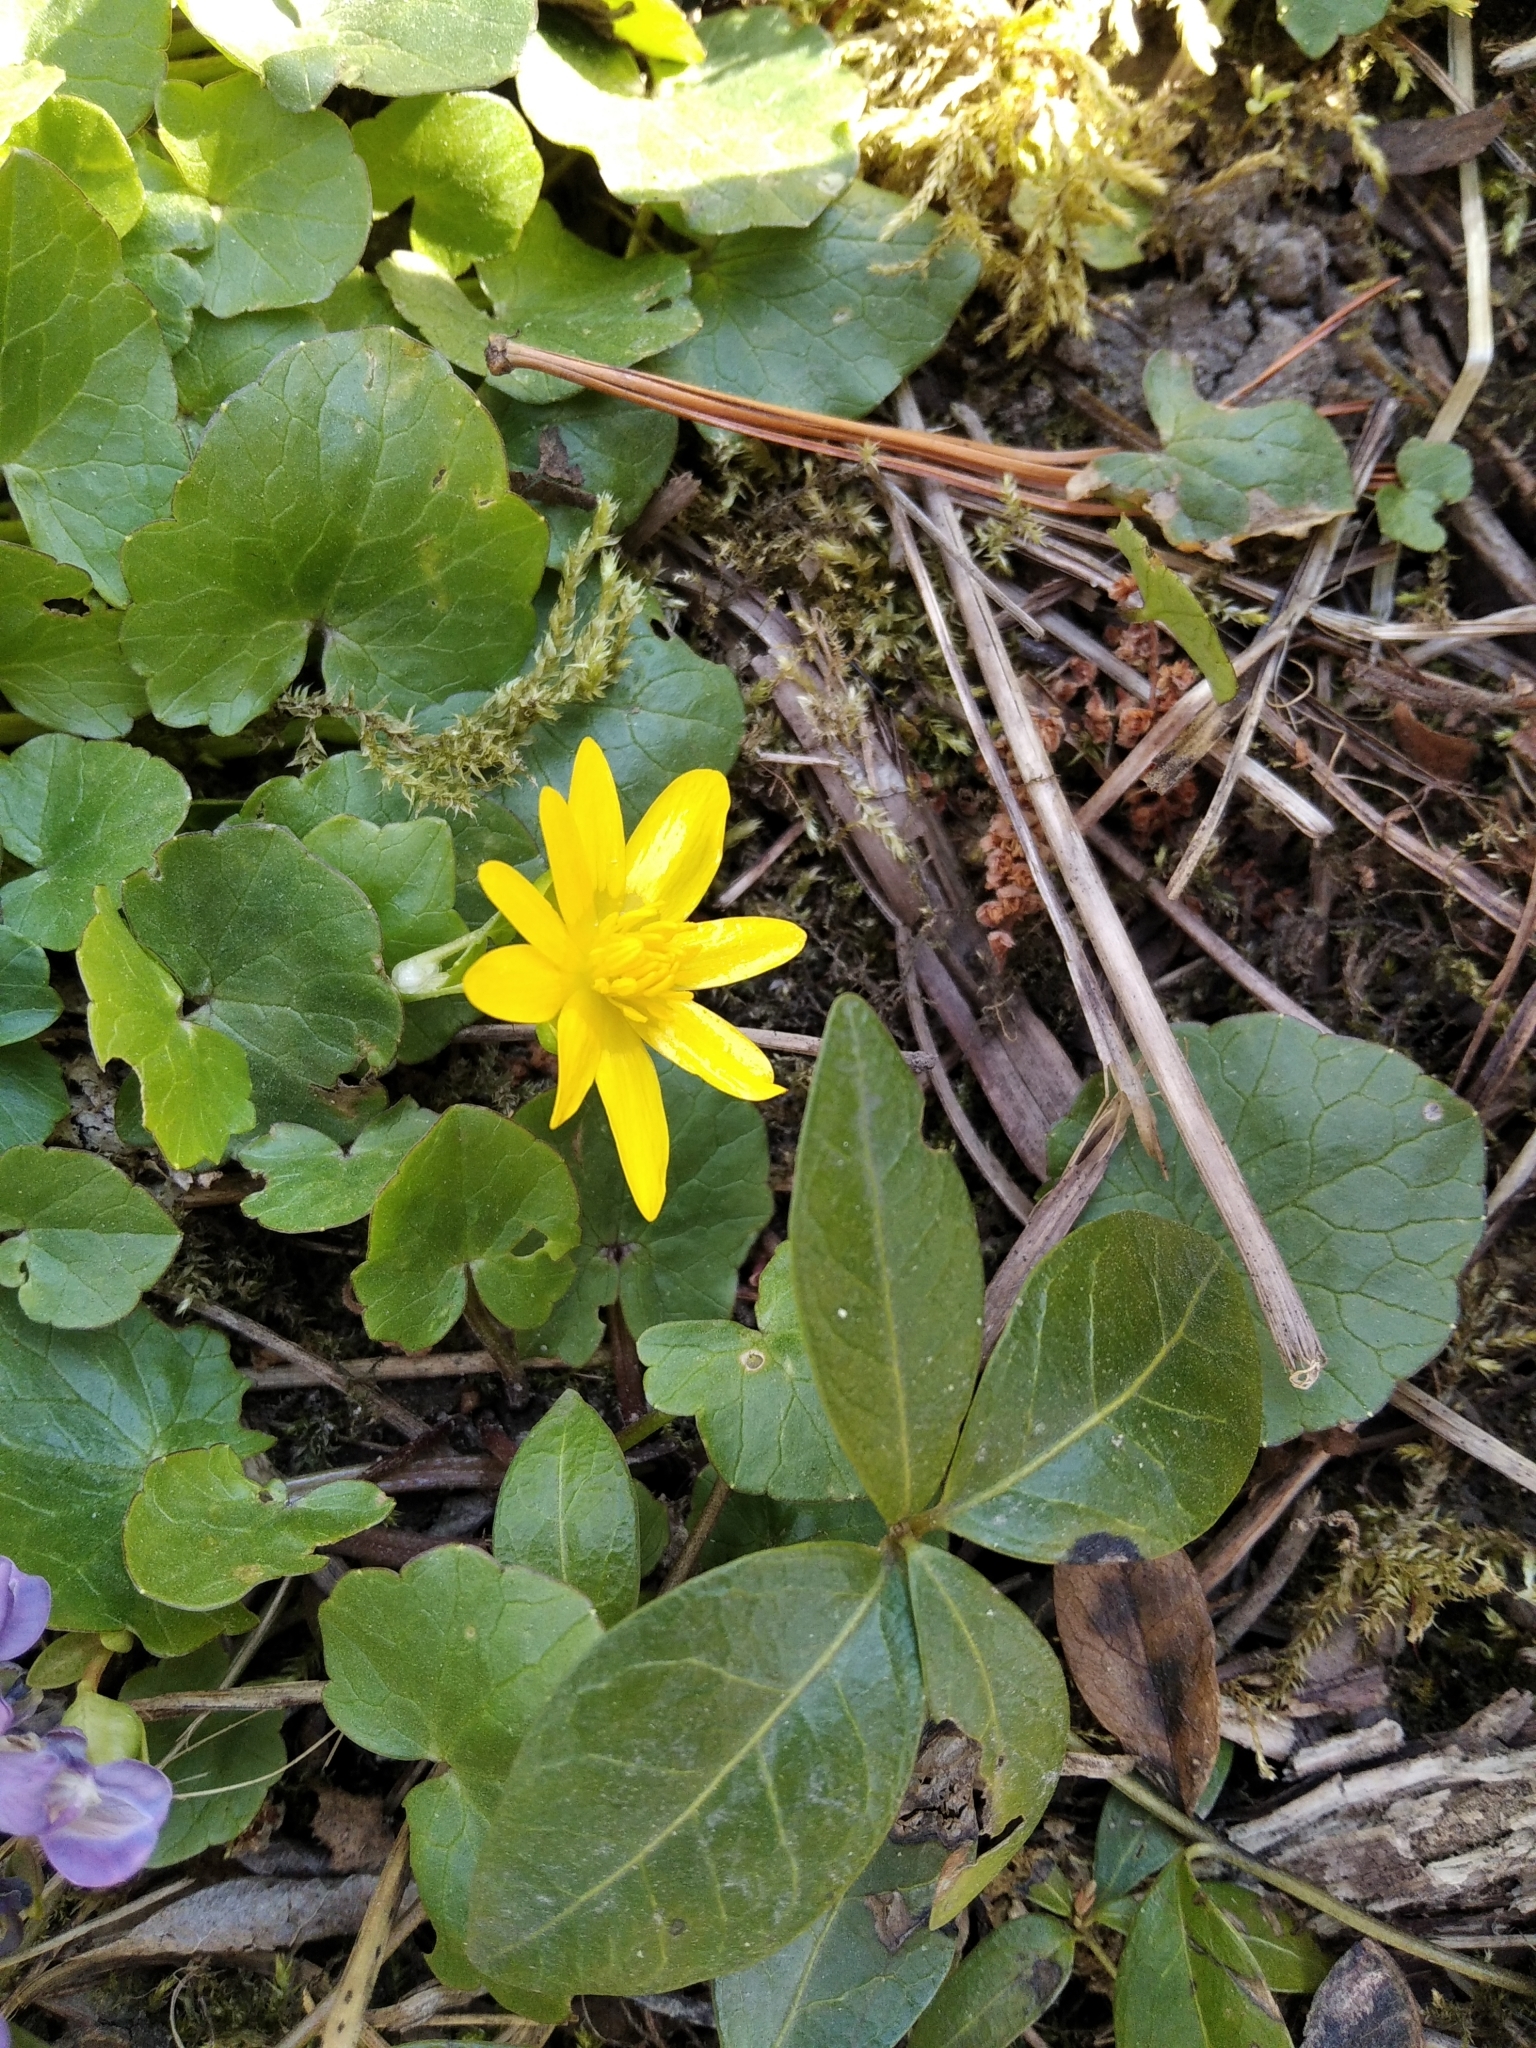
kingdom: Plantae
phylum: Tracheophyta
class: Magnoliopsida
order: Ranunculales
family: Ranunculaceae
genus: Ficaria
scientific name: Ficaria verna
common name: Lesser celandine
